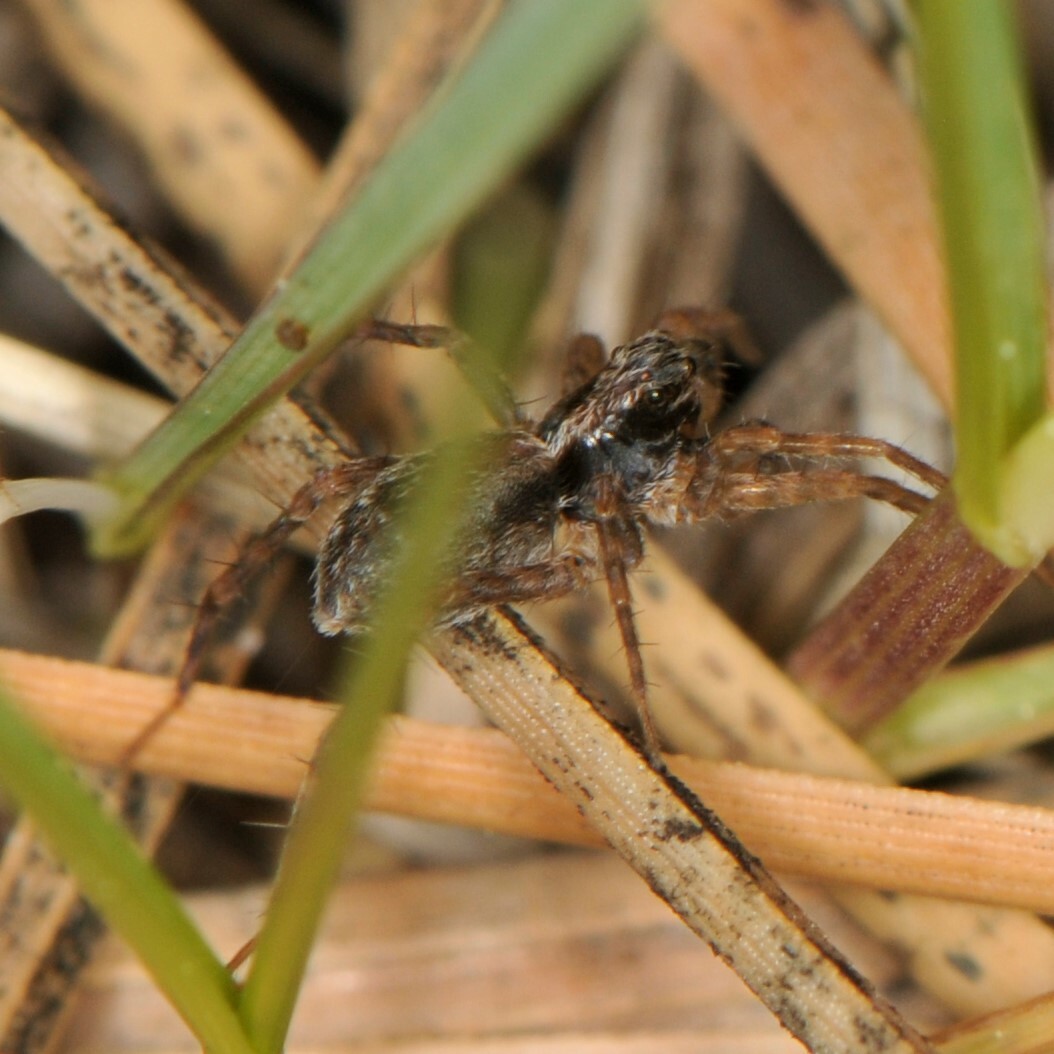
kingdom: Animalia
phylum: Arthropoda
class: Arachnida
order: Araneae
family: Lycosidae
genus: Pardosa
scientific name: Pardosa
